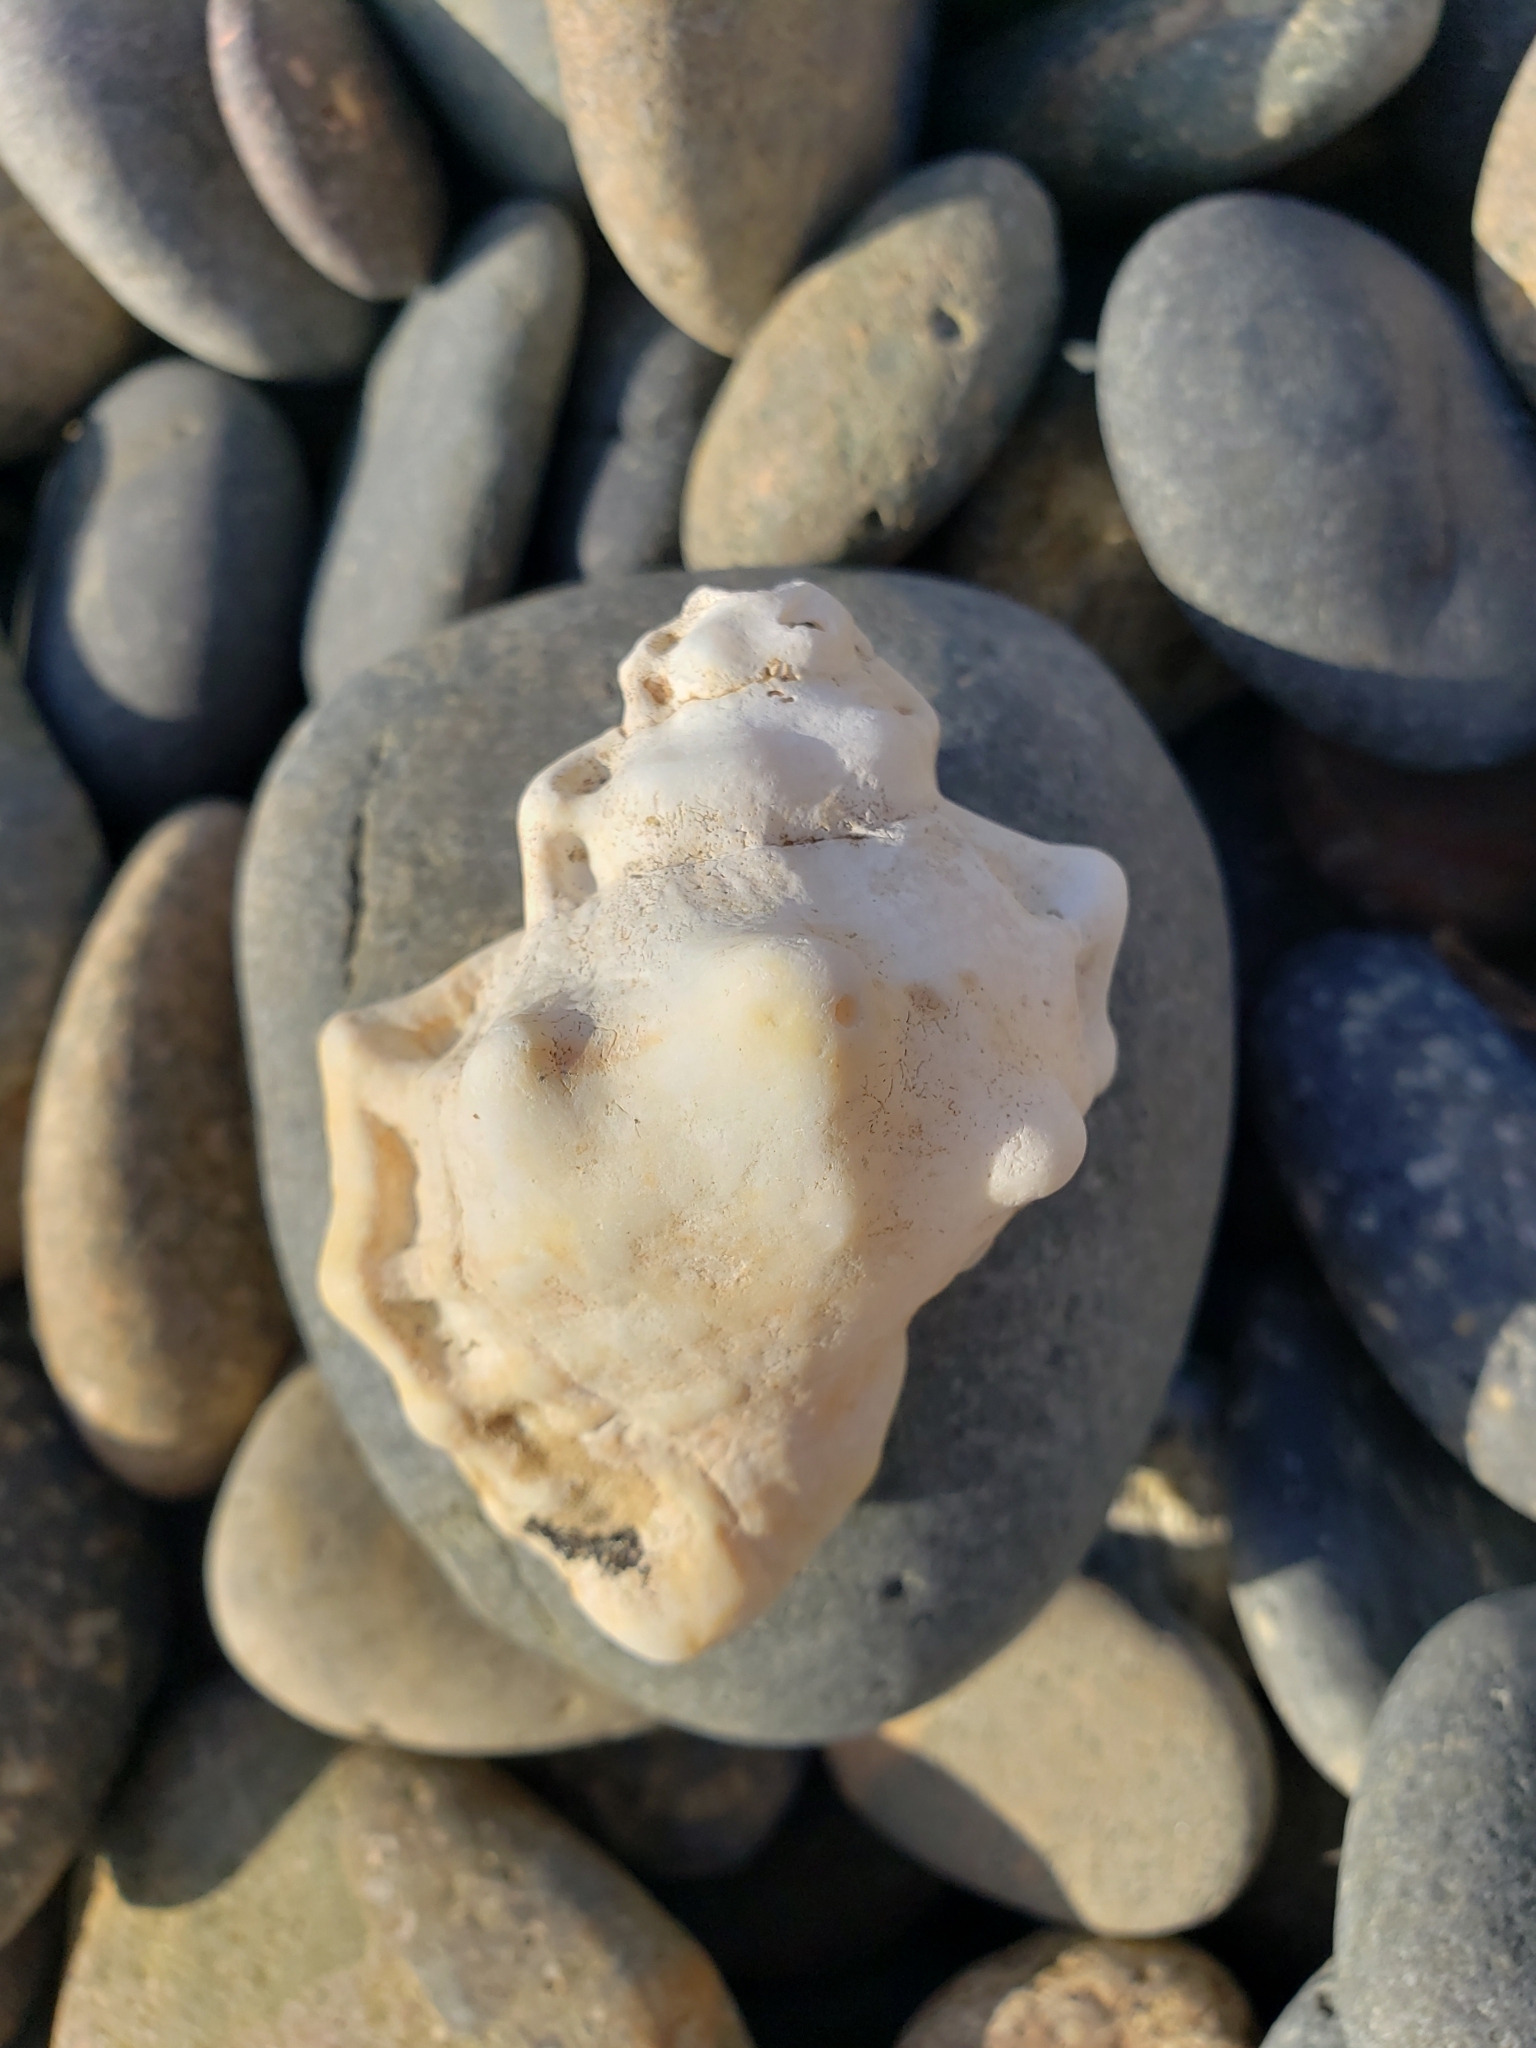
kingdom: Animalia
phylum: Mollusca
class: Gastropoda
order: Littorinimorpha
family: Bursidae
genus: Crossata
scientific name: Crossata californica
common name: California frogsnail
